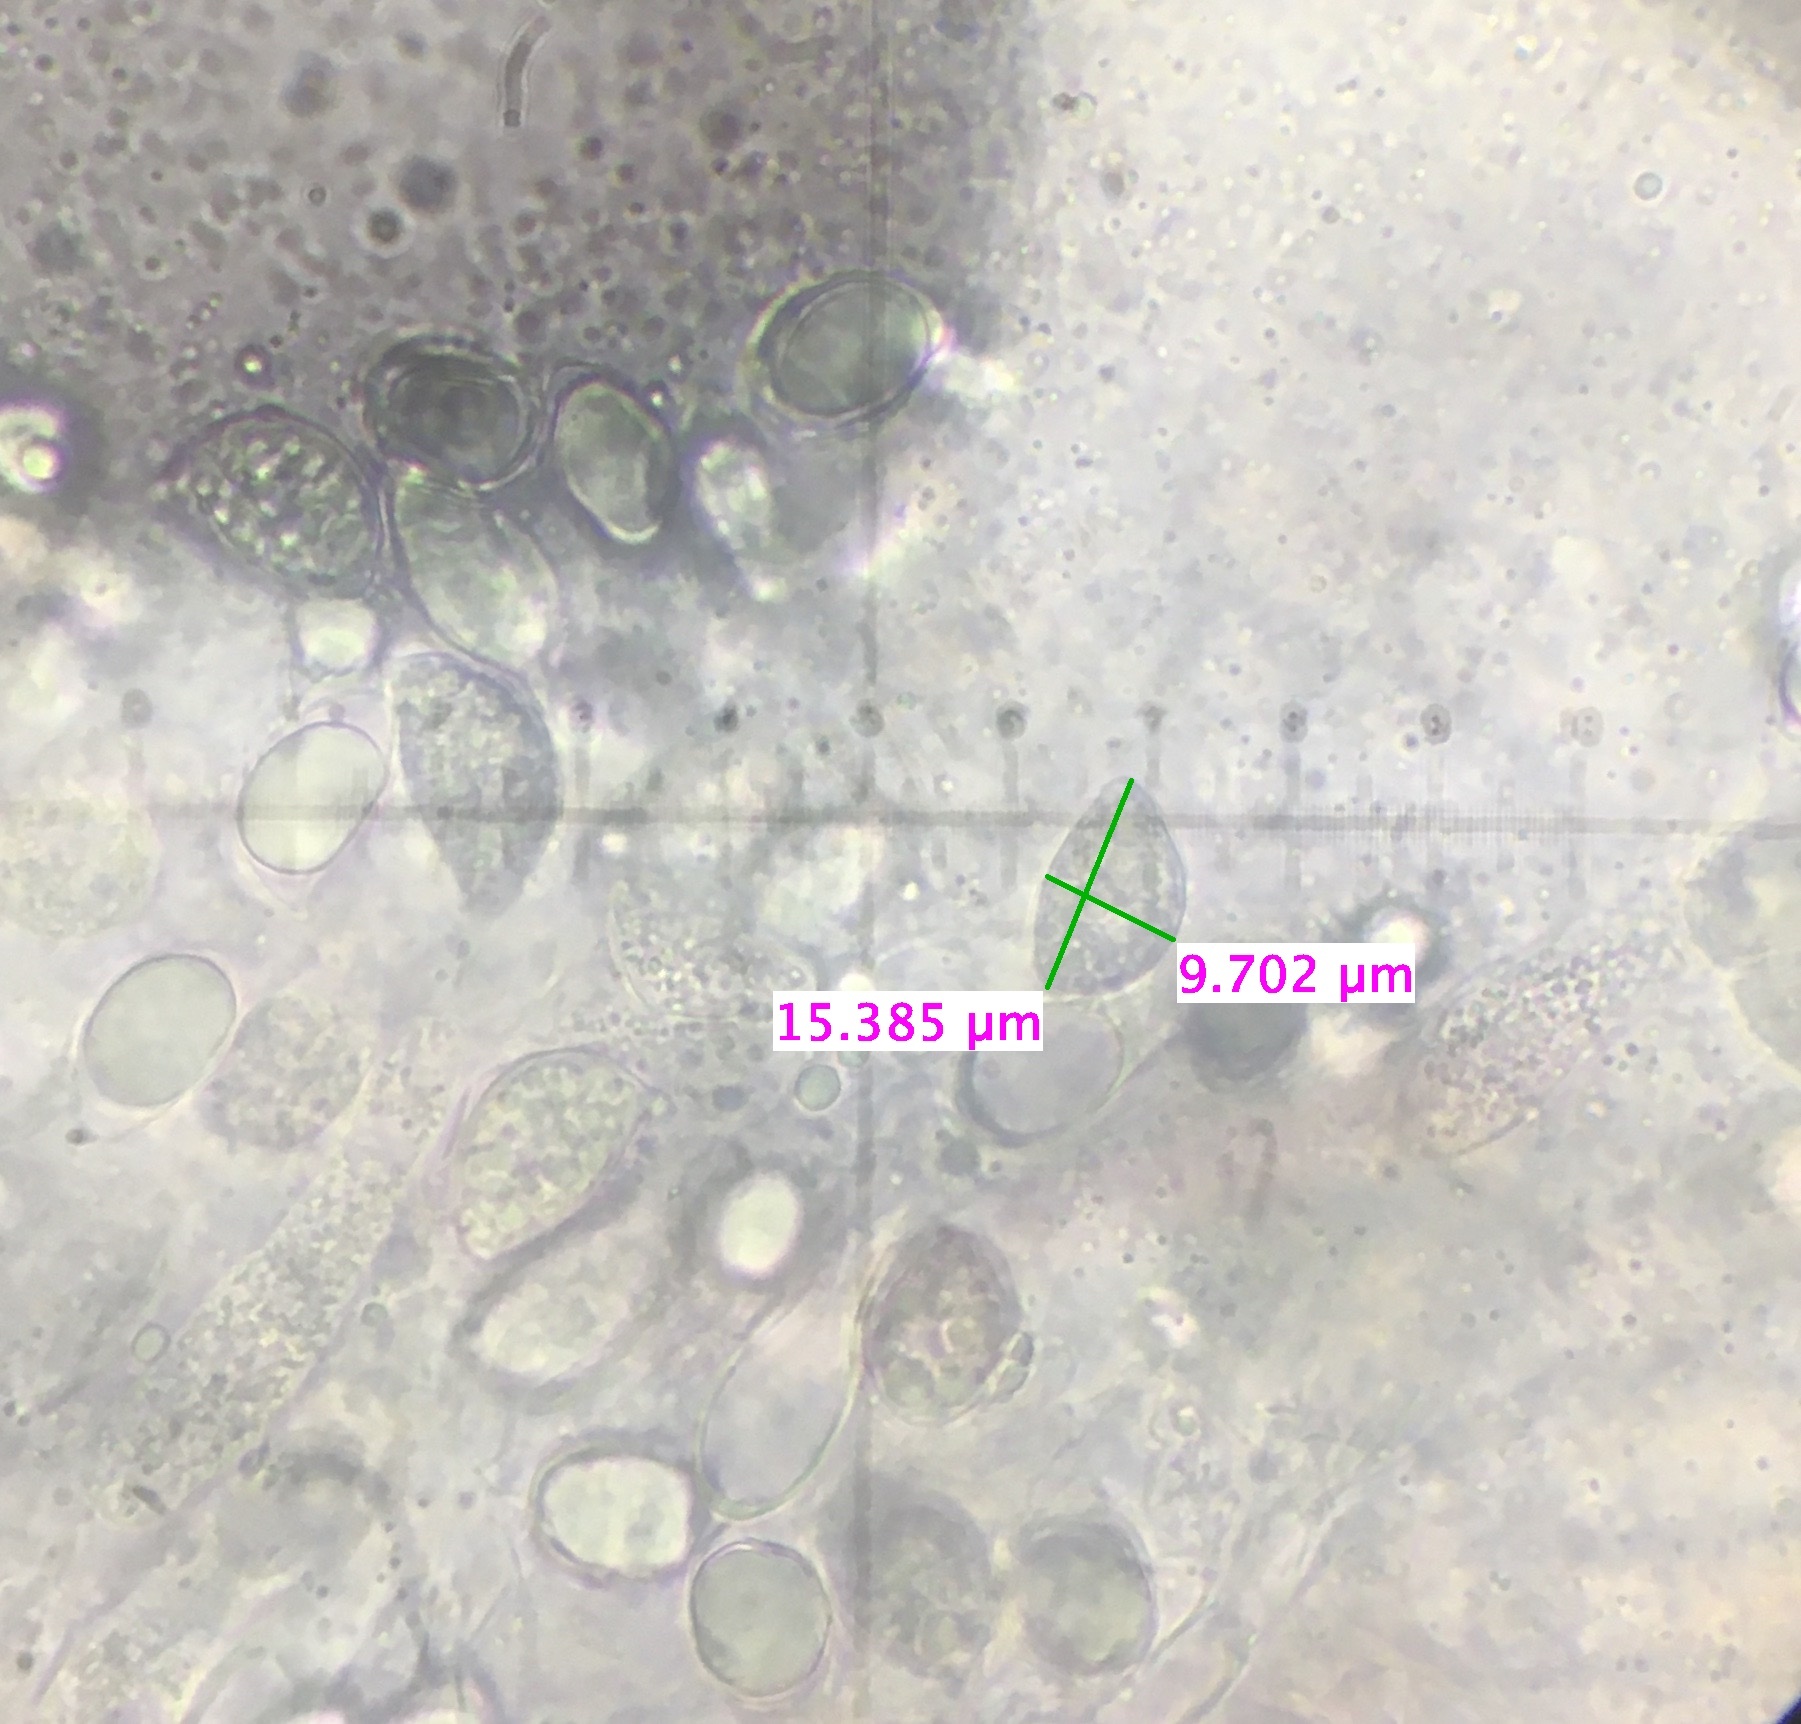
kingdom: Fungi
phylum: Basidiomycota
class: Agaricomycetes
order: Agaricales
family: Physalacriaceae
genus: Hymenopellis
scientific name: Hymenopellis megalospora
